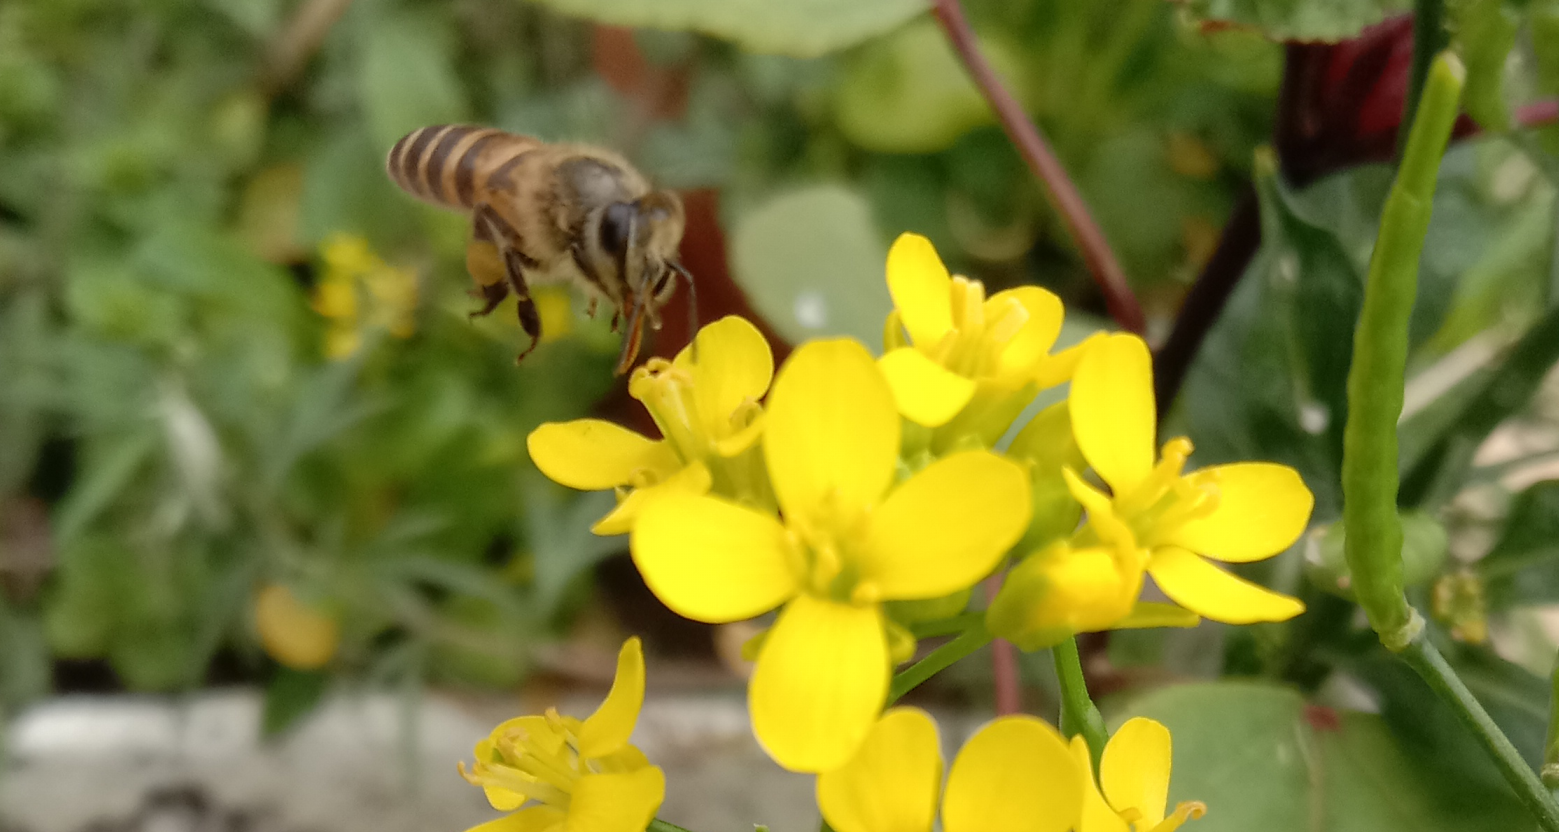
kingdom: Animalia
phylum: Arthropoda
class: Insecta
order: Hymenoptera
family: Apidae
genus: Apis
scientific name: Apis cerana
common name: Honey bee
